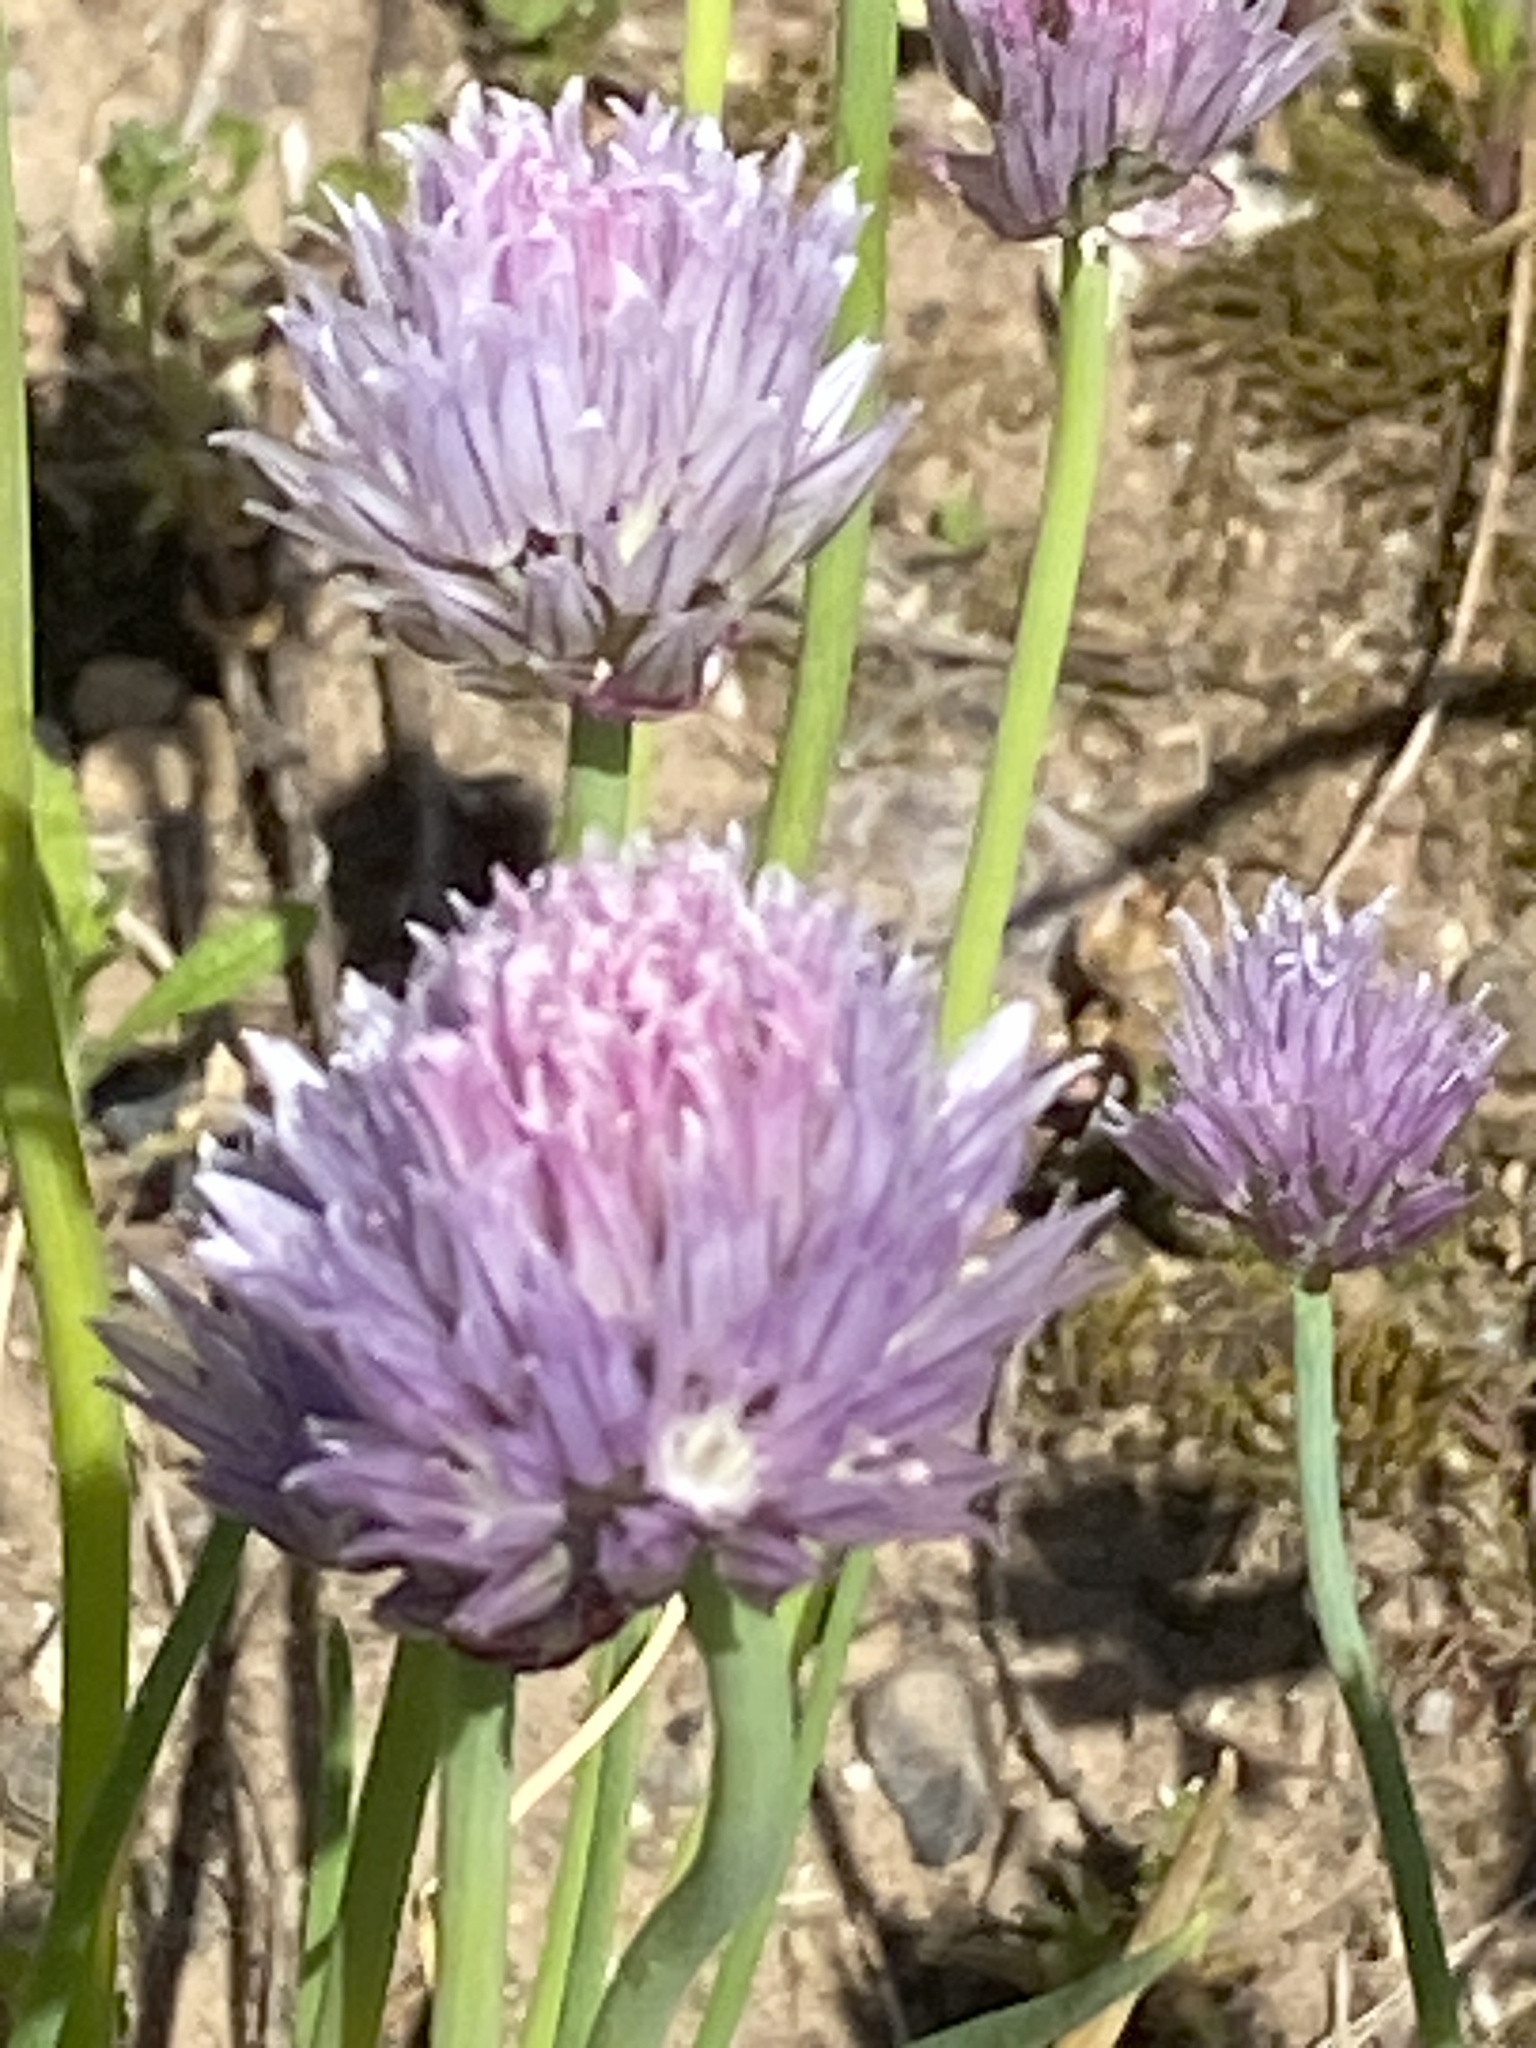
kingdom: Plantae
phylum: Tracheophyta
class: Liliopsida
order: Asparagales
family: Amaryllidaceae
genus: Allium
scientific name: Allium schoenoprasum
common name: Chives
